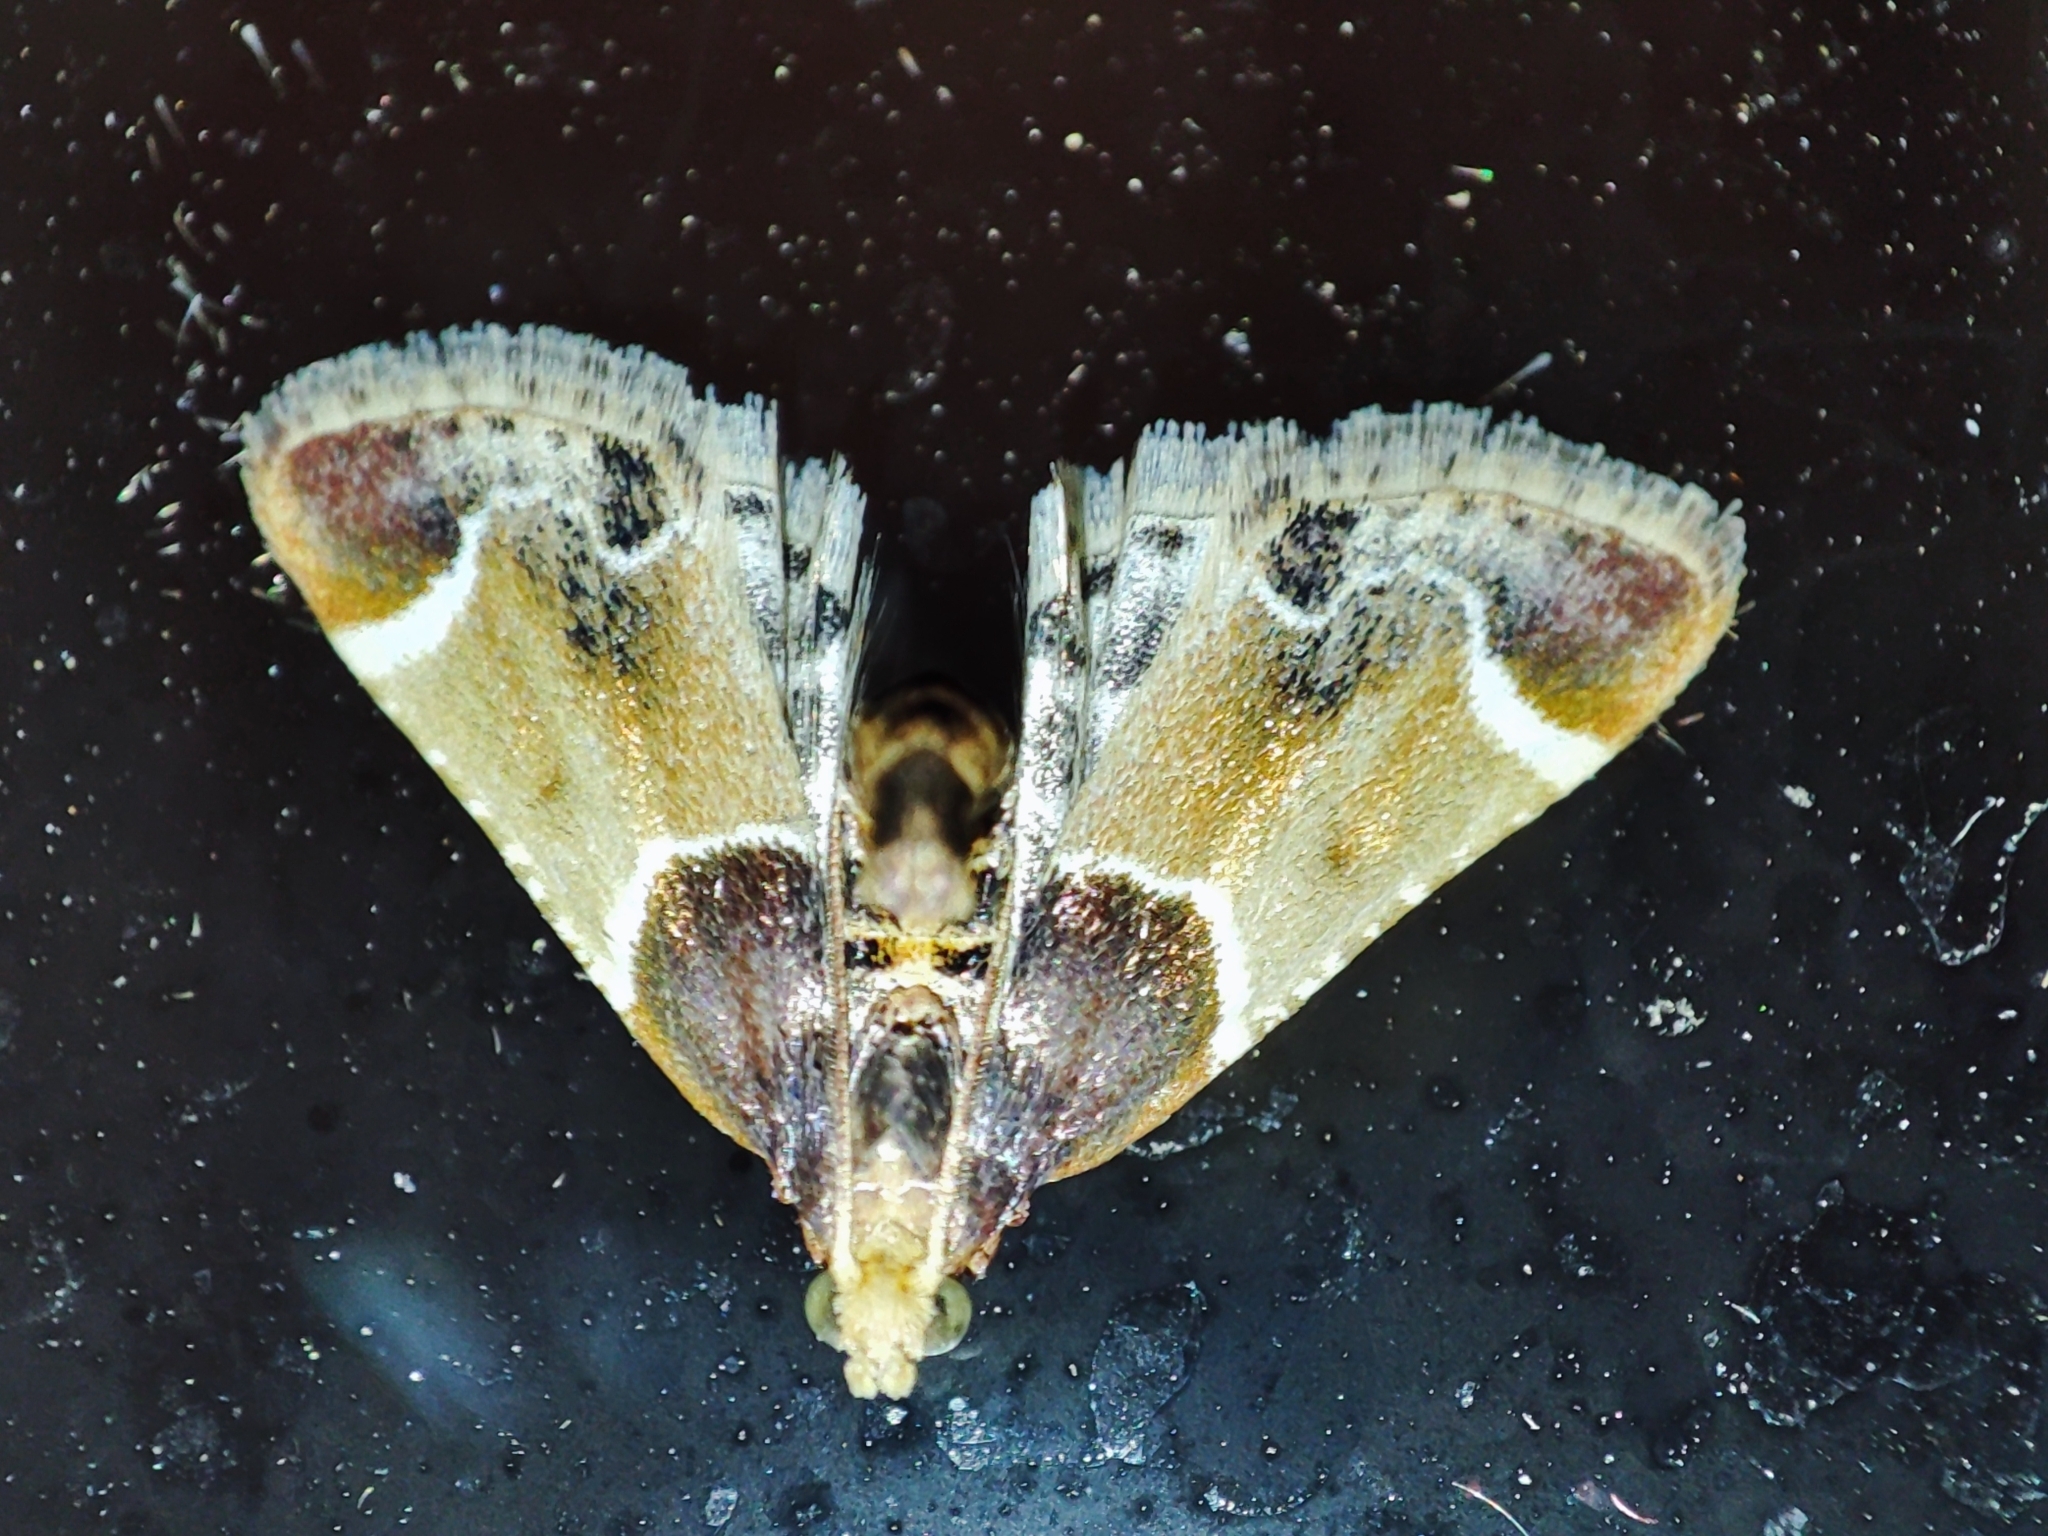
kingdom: Animalia
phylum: Arthropoda
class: Insecta
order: Lepidoptera
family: Pyralidae
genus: Pyralis
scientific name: Pyralis farinalis
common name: Meal moth
